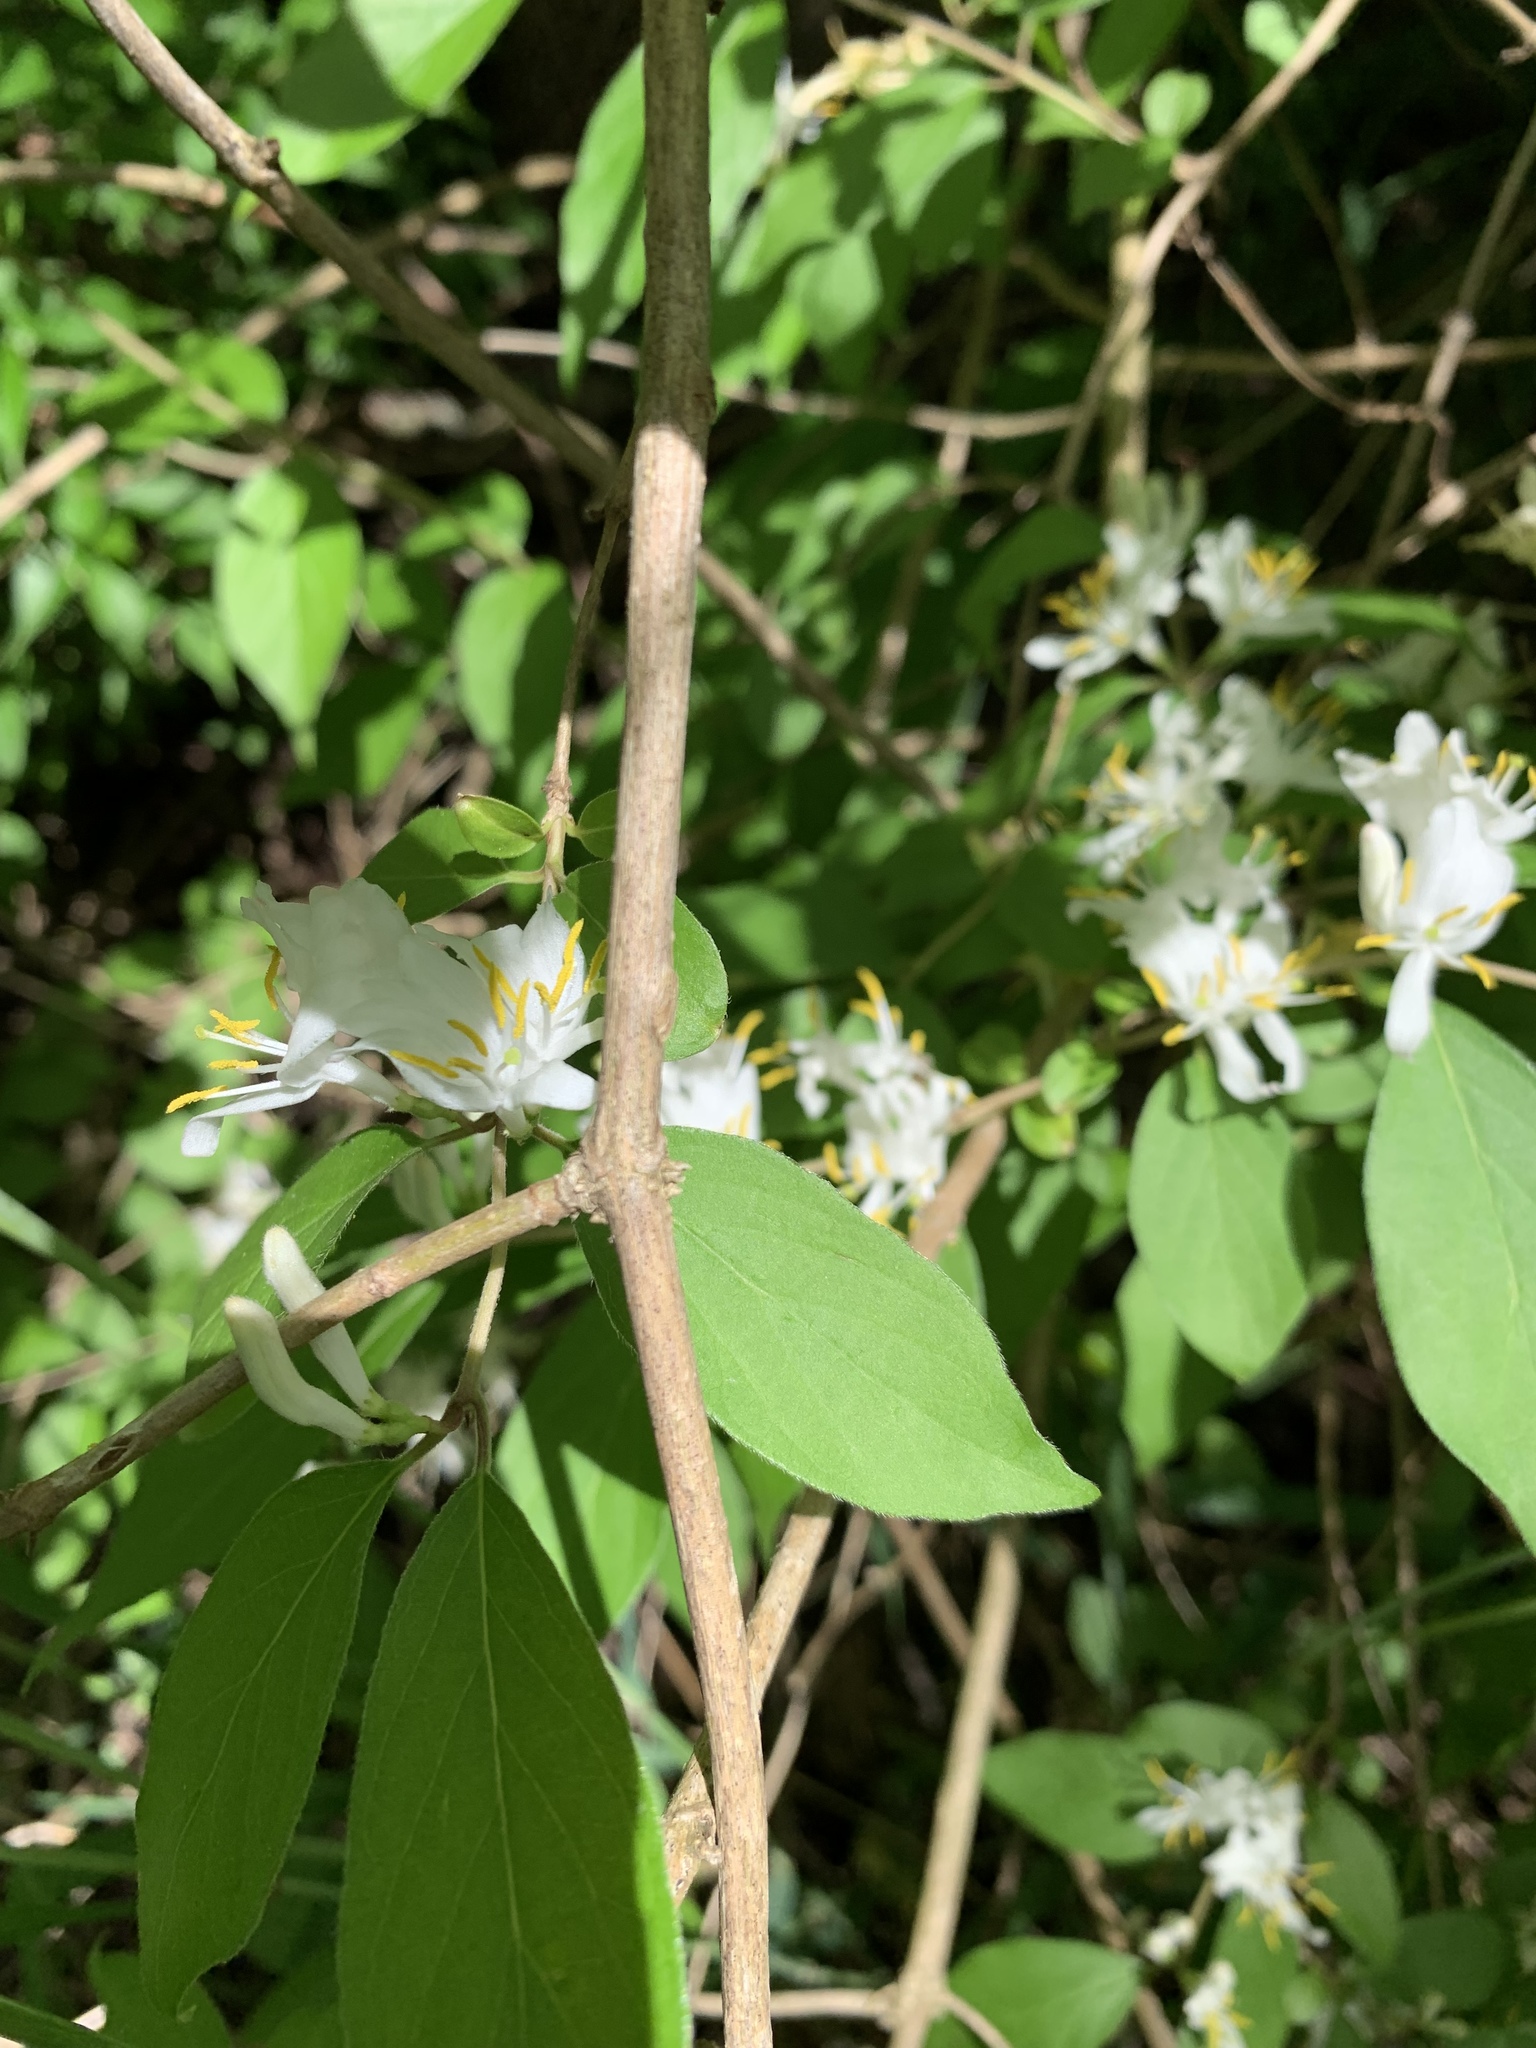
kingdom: Plantae
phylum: Tracheophyta
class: Magnoliopsida
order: Dipsacales
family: Caprifoliaceae
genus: Lonicera
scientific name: Lonicera maackii
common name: Amur honeysuckle
